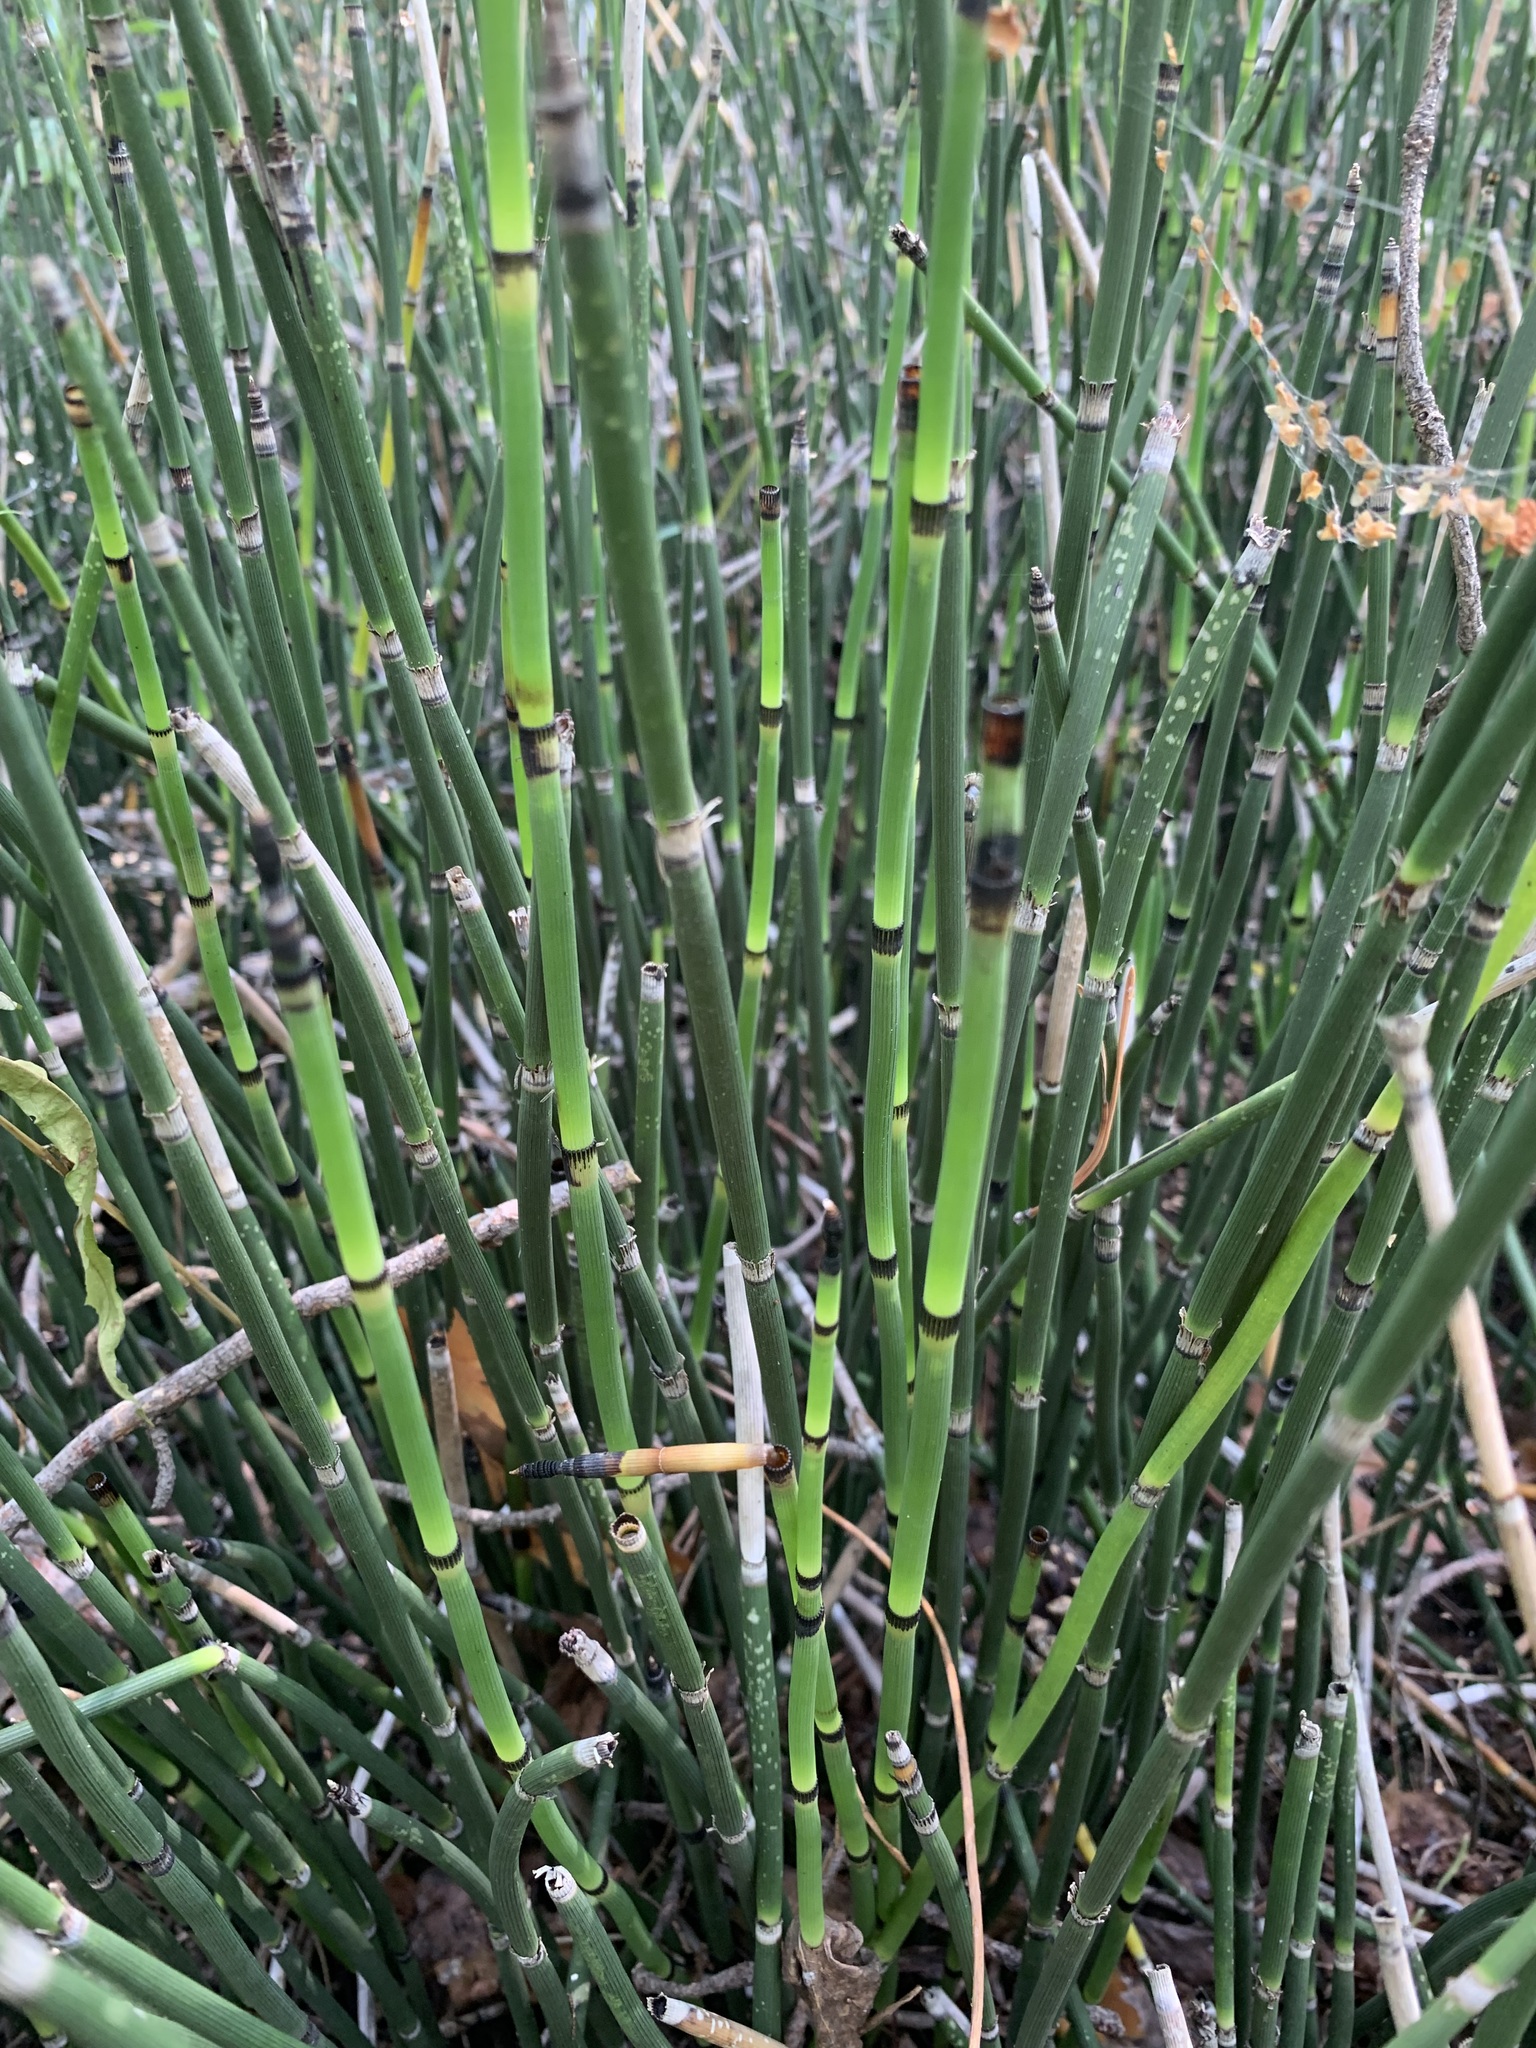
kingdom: Plantae
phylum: Tracheophyta
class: Polypodiopsida
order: Equisetales
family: Equisetaceae
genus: Equisetum
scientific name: Equisetum hyemale
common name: Rough horsetail
